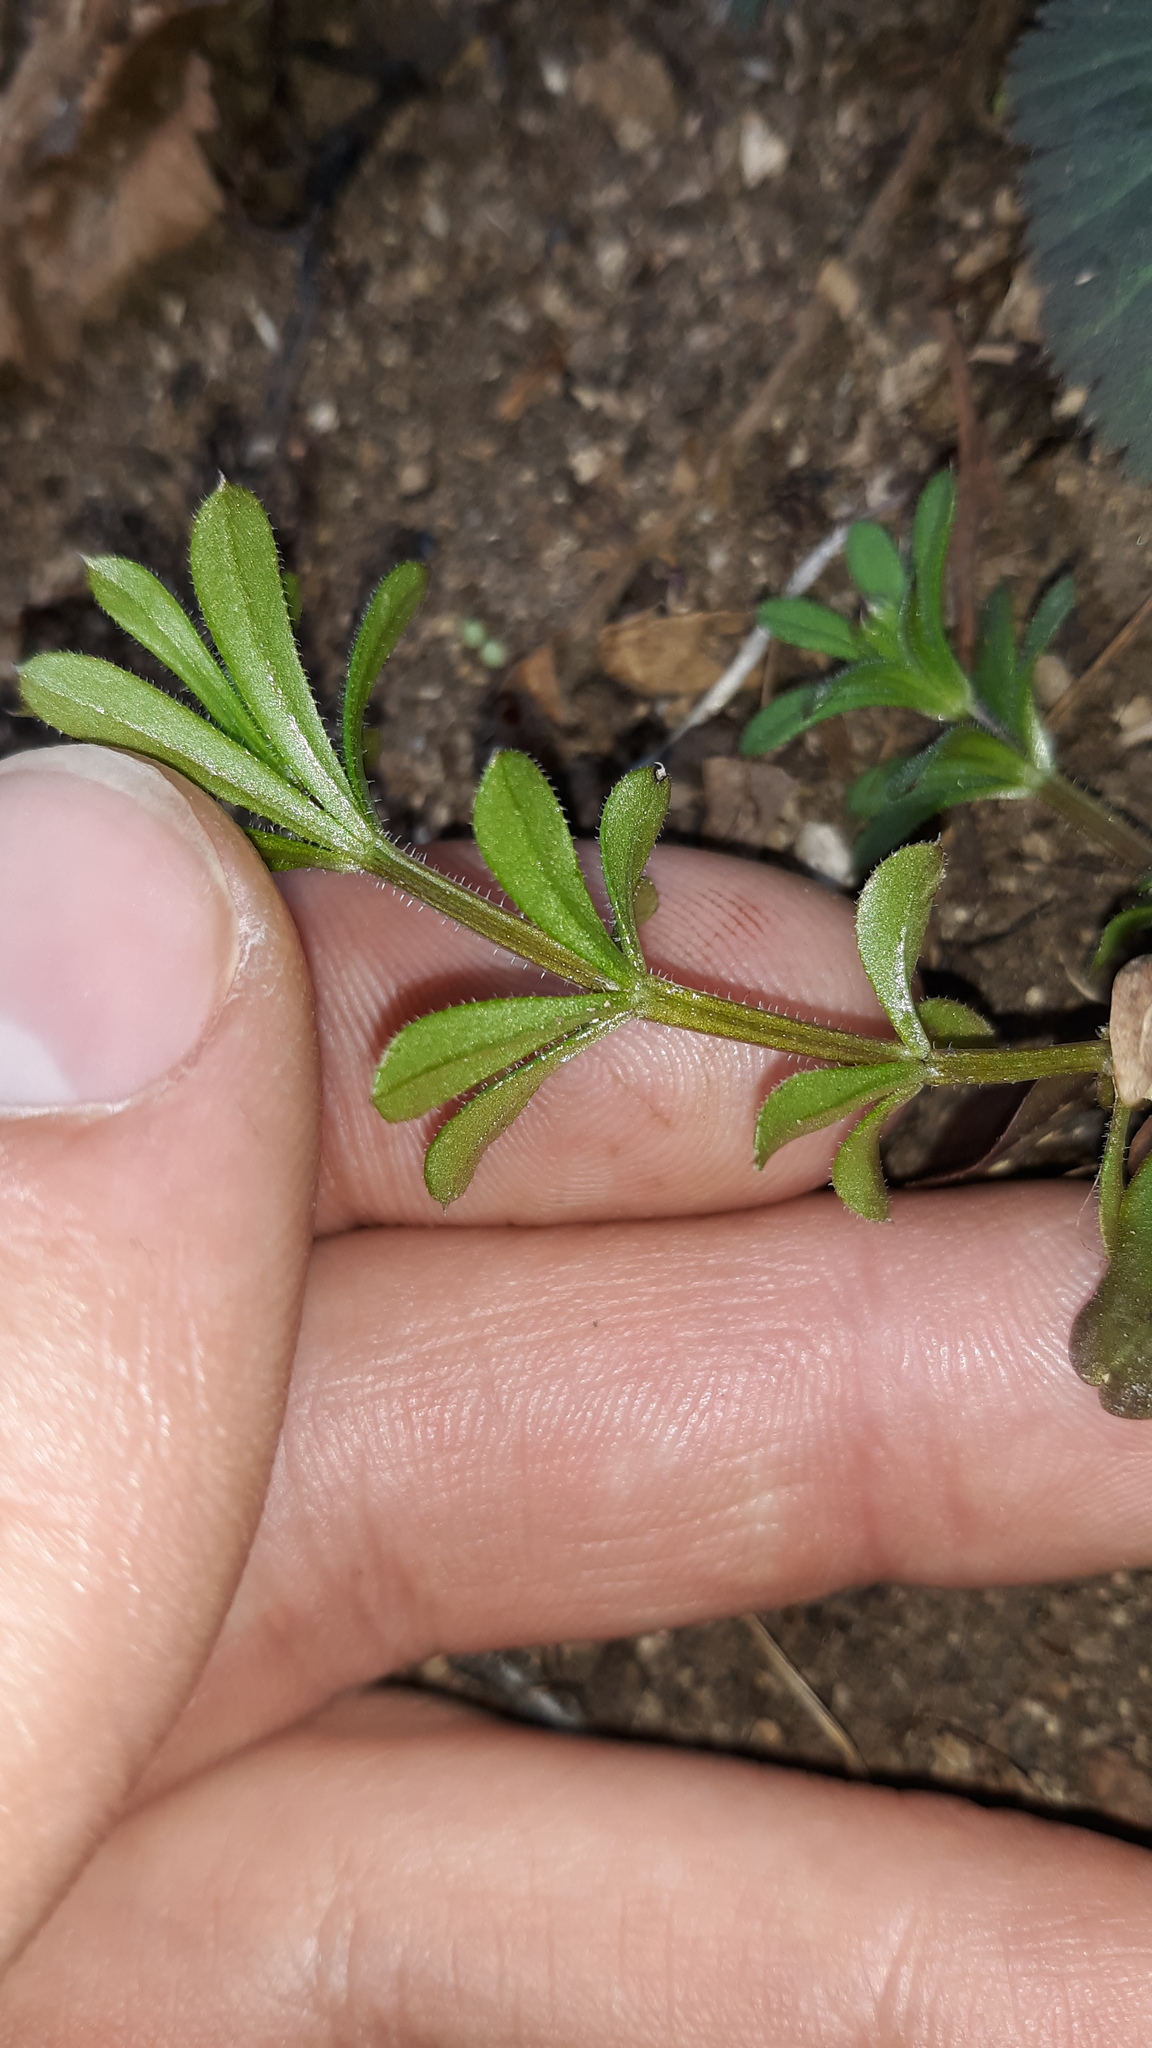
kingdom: Plantae
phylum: Tracheophyta
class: Magnoliopsida
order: Gentianales
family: Rubiaceae
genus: Galium
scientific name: Galium aparine
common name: Cleavers
